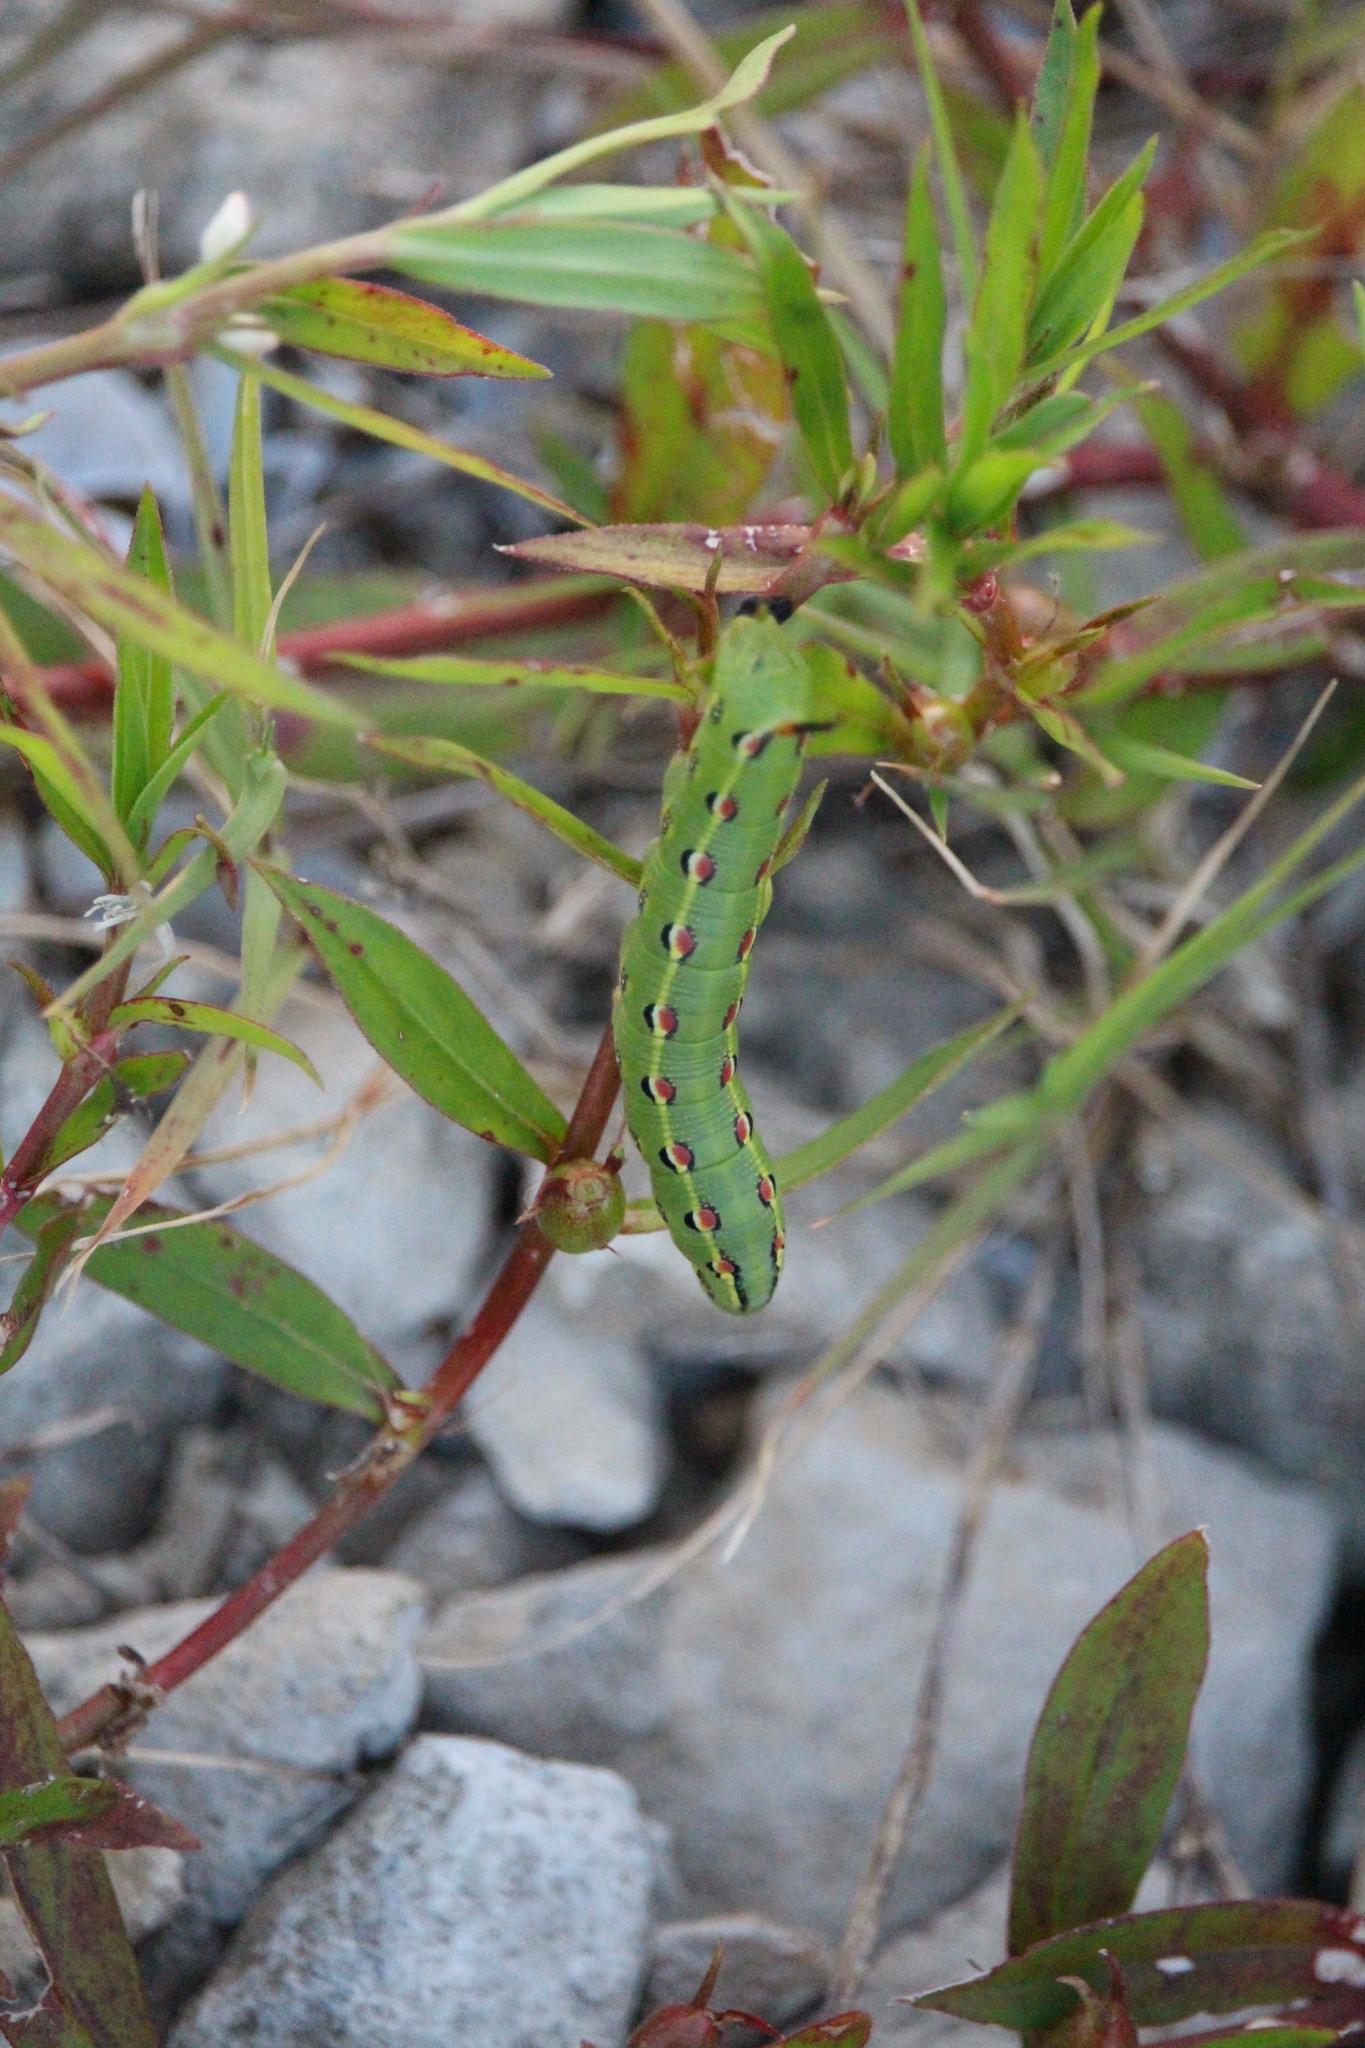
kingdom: Animalia
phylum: Arthropoda
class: Insecta
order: Lepidoptera
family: Sphingidae
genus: Hyles
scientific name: Hyles lineata
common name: White-lined sphinx
